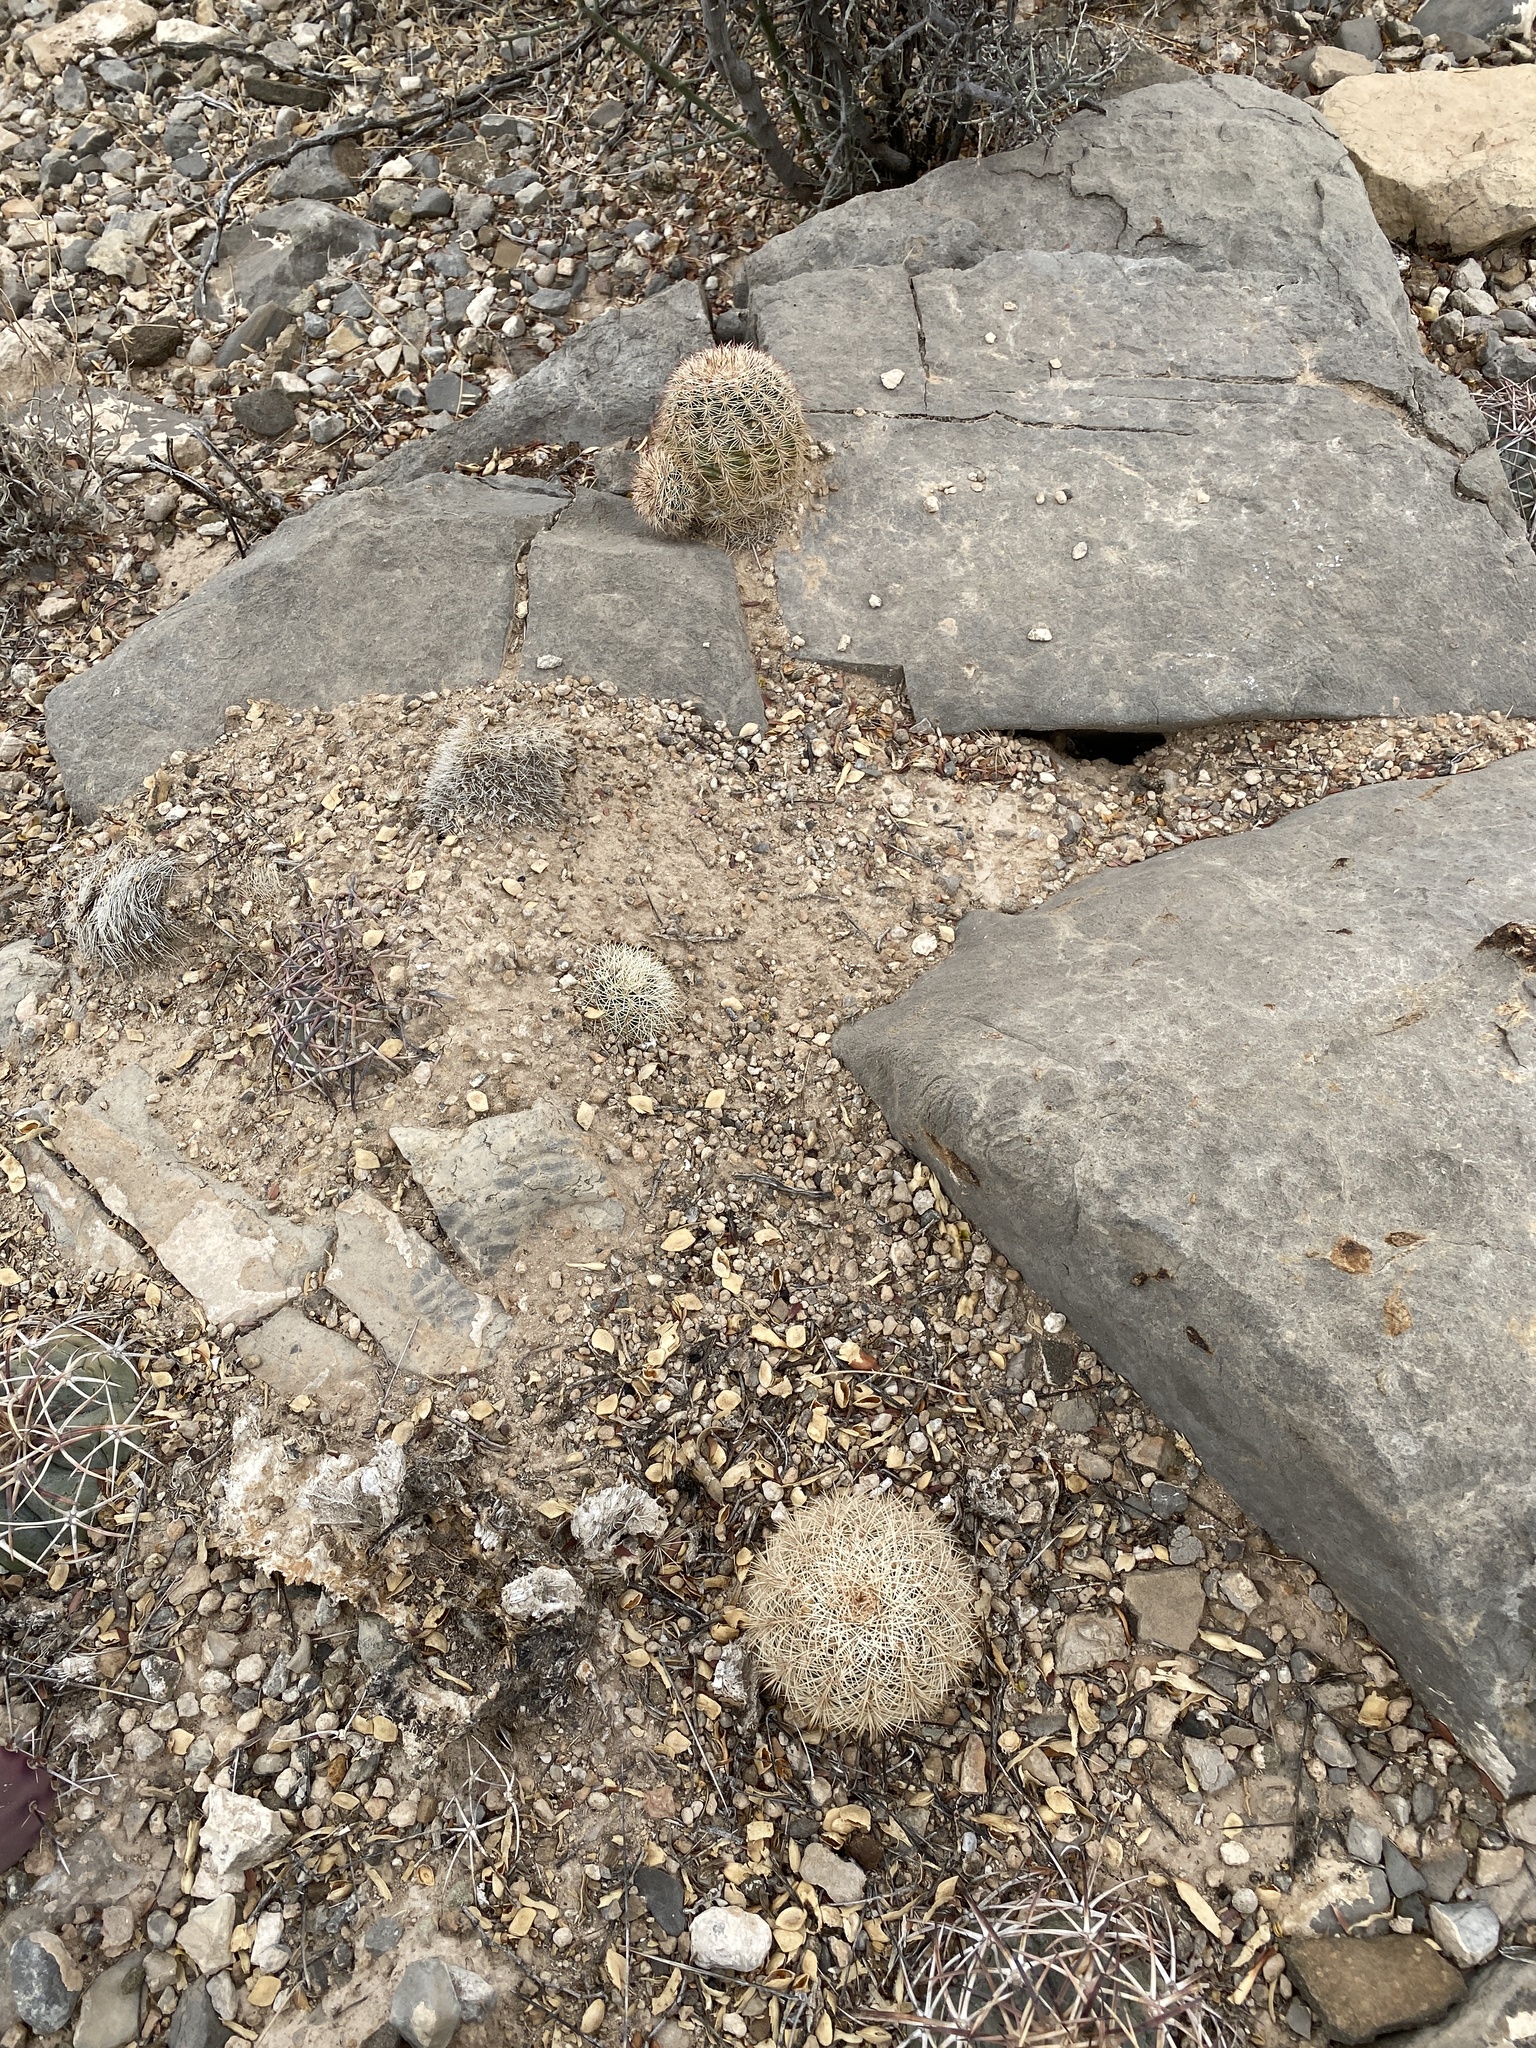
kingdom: Plantae
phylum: Tracheophyta
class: Magnoliopsida
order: Caryophyllales
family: Cactaceae
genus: Echinocereus
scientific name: Echinocereus dasyacanthus
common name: Spiny hedgehog cactus
